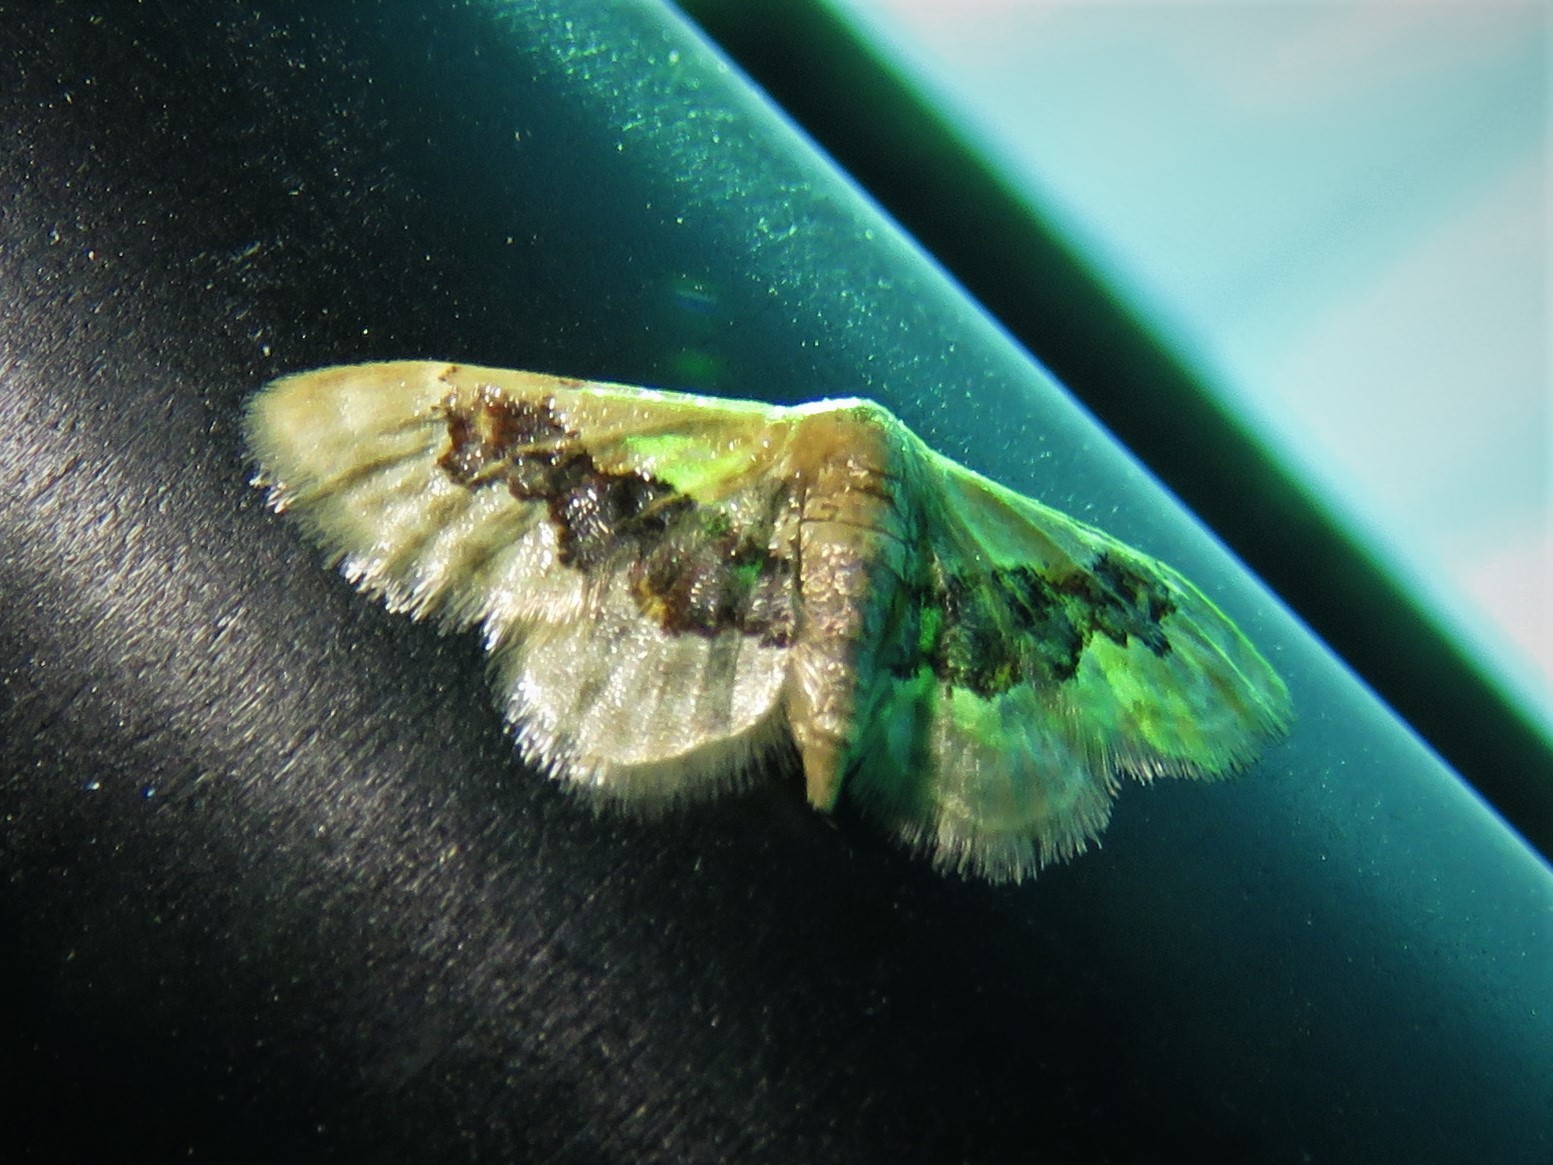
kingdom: Animalia
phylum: Arthropoda
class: Insecta
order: Lepidoptera
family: Geometridae
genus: Idaea
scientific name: Idaea gemmata
